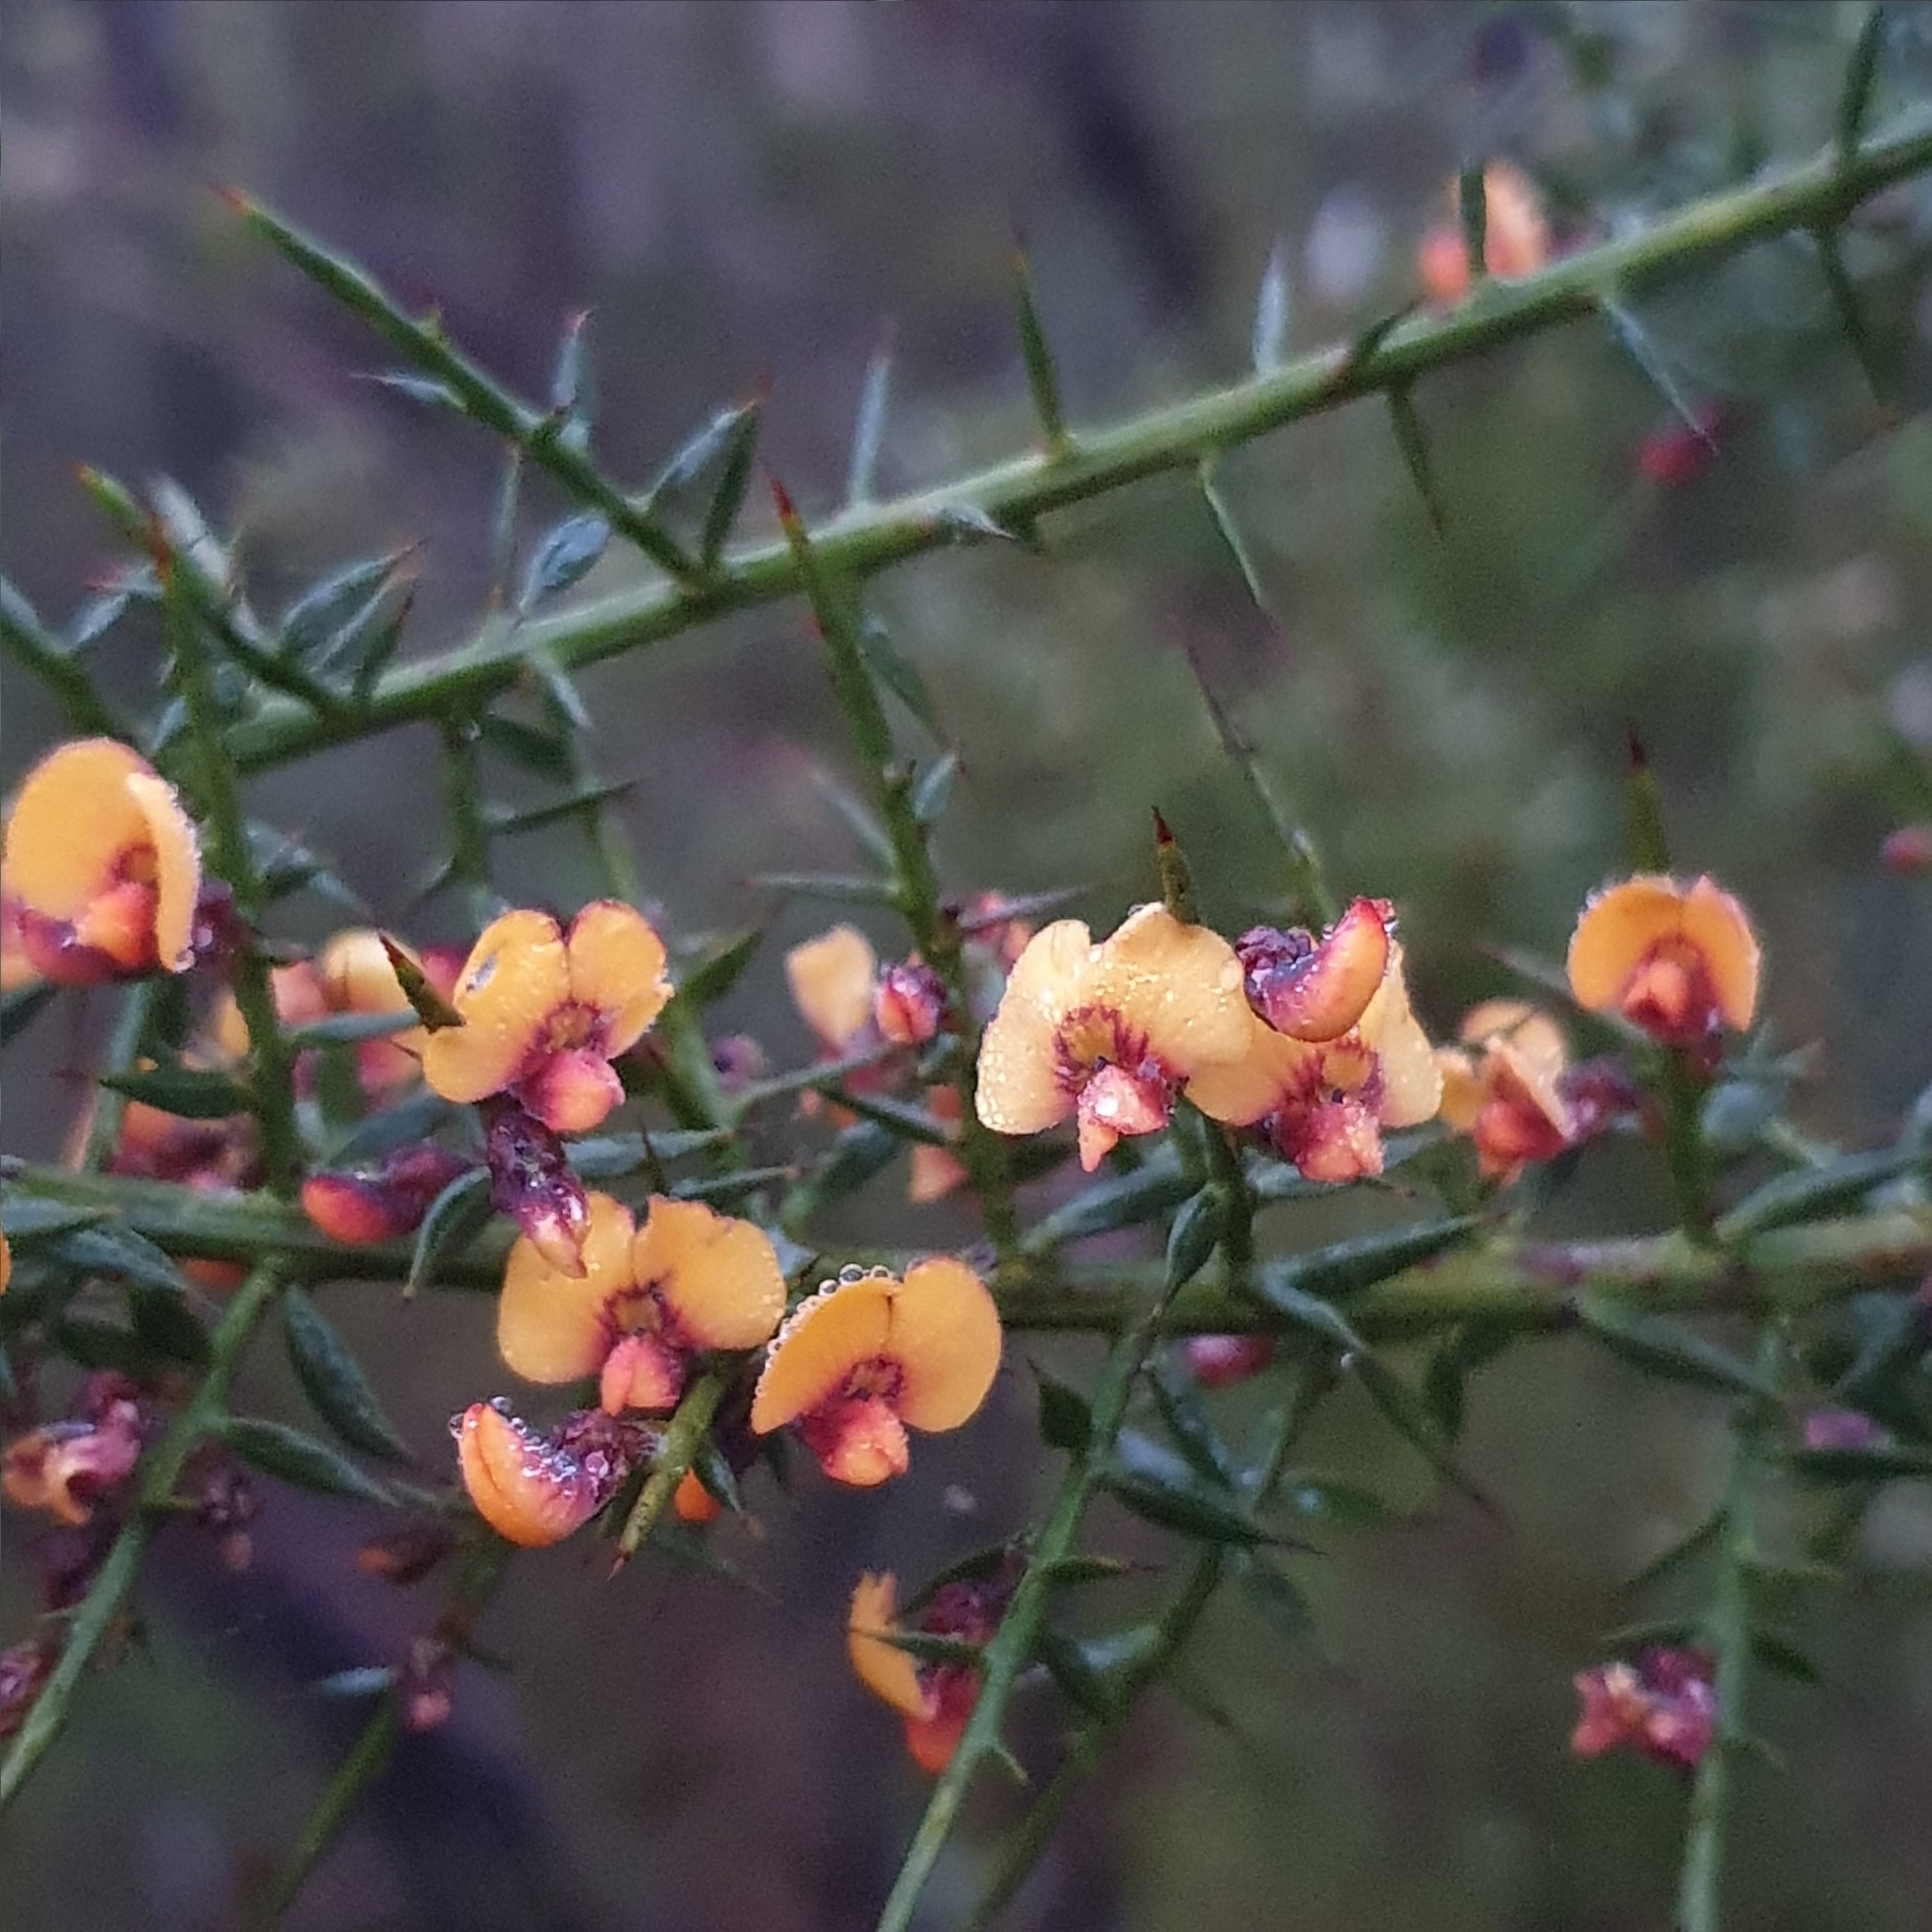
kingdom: Plantae
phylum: Tracheophyta
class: Magnoliopsida
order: Fabales
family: Fabaceae
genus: Daviesia
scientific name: Daviesia ulicifolia
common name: Gorse bitter-pea
